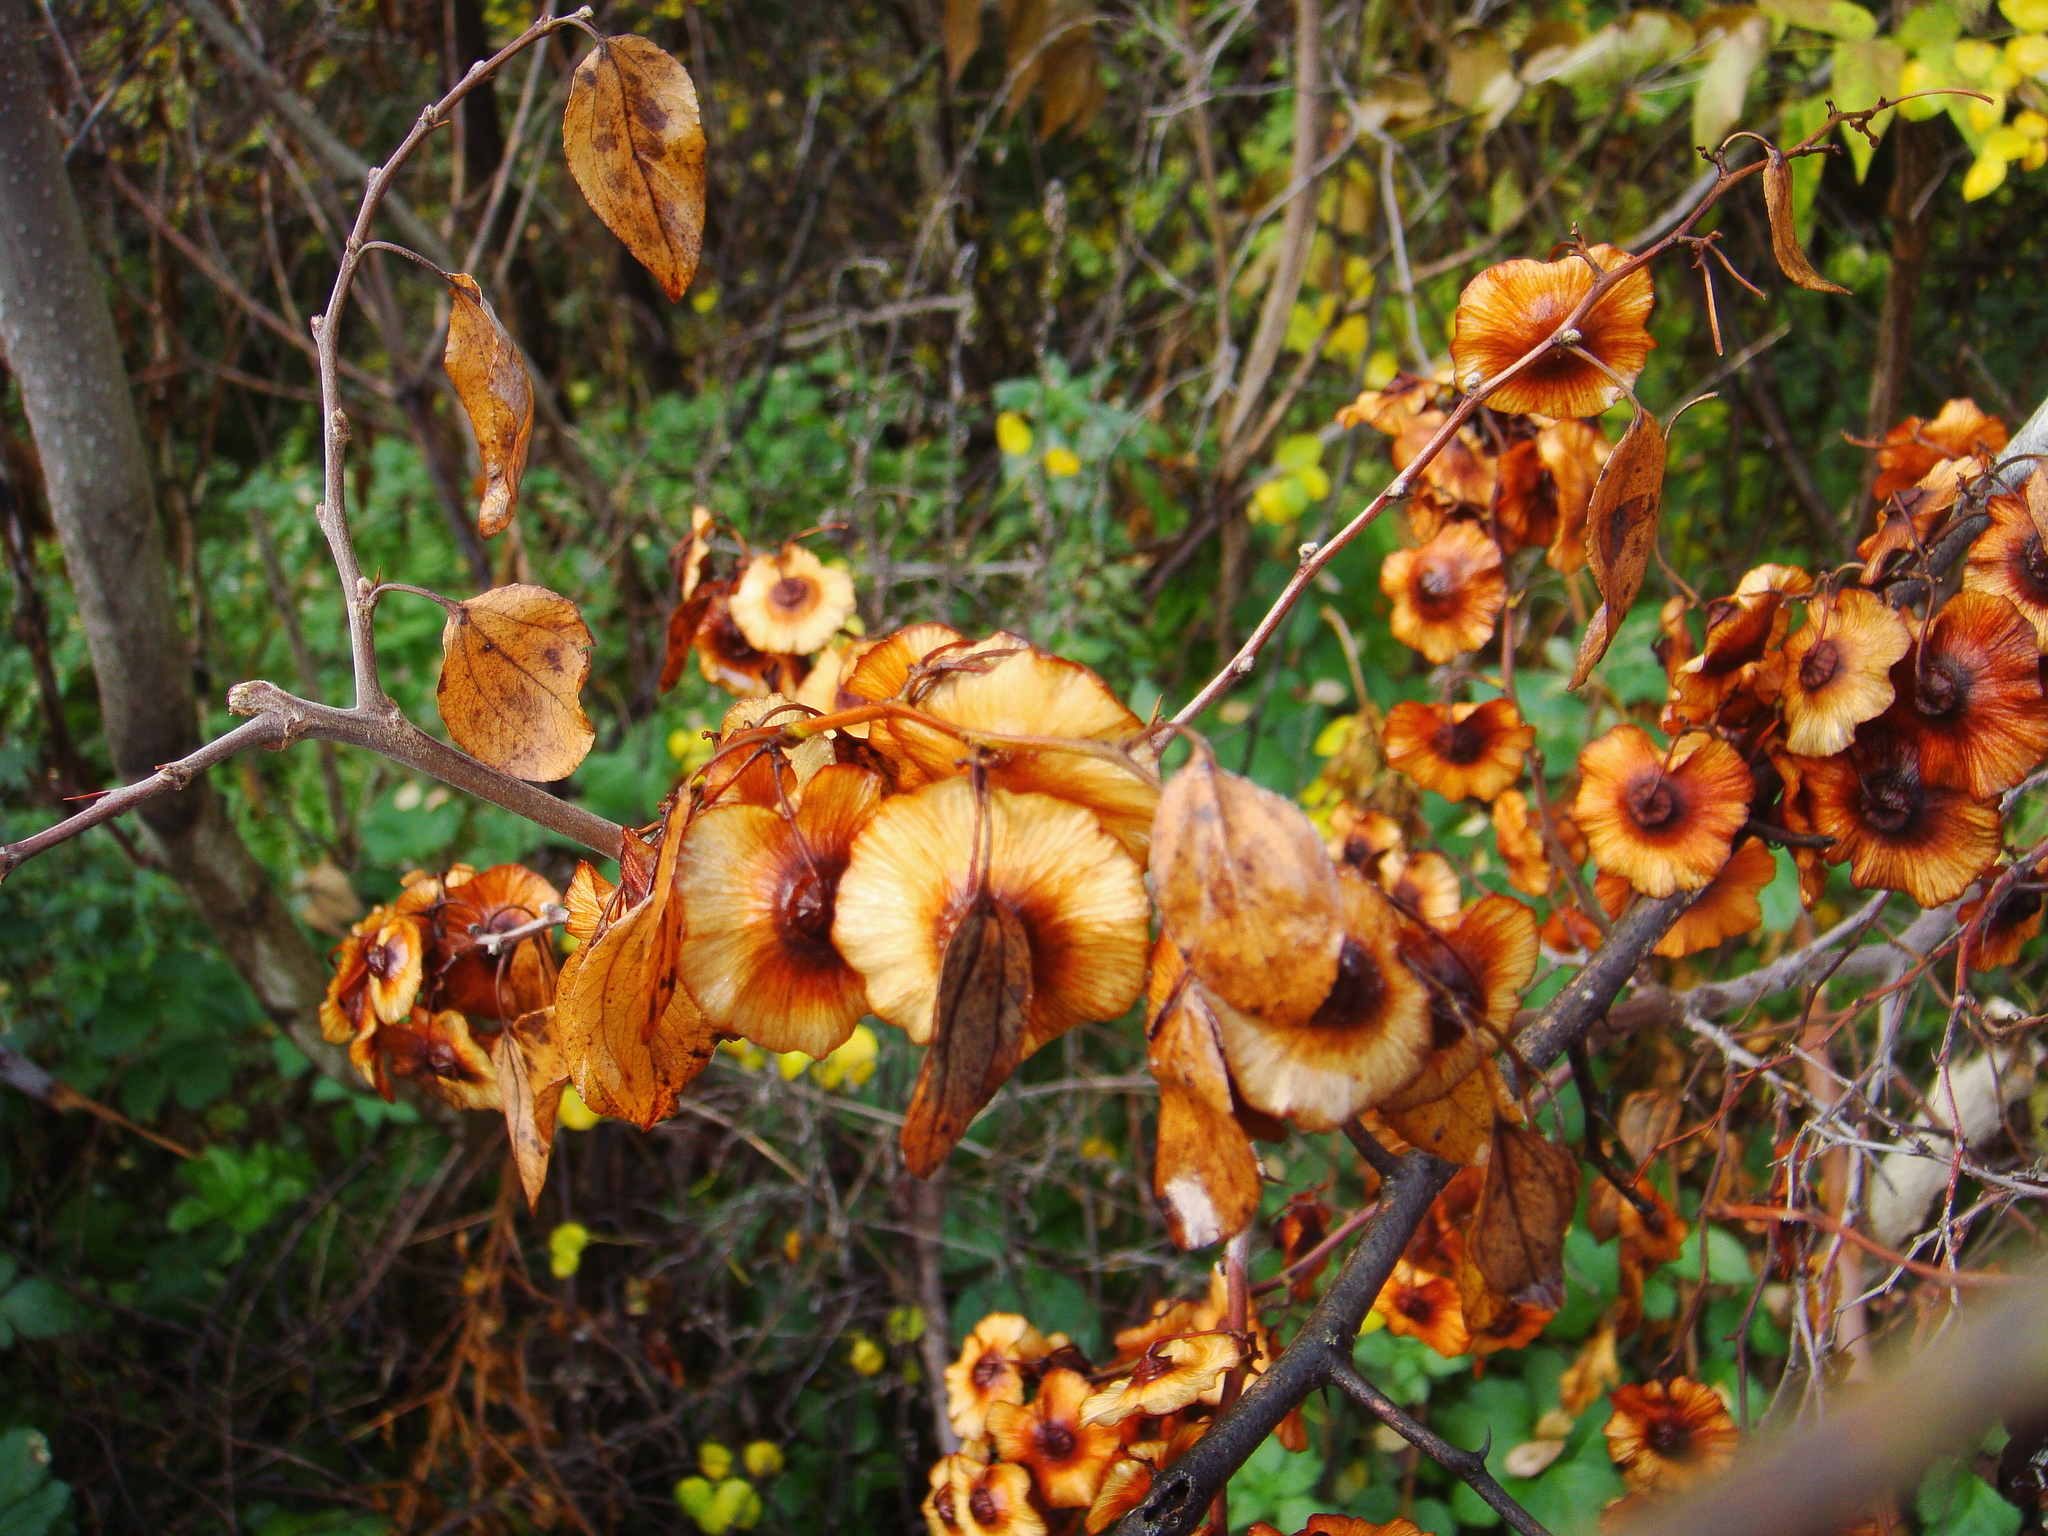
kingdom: Plantae
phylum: Tracheophyta
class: Magnoliopsida
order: Rosales
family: Rhamnaceae
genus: Paliurus
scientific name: Paliurus spina-christi
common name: Jeruselem thorn
